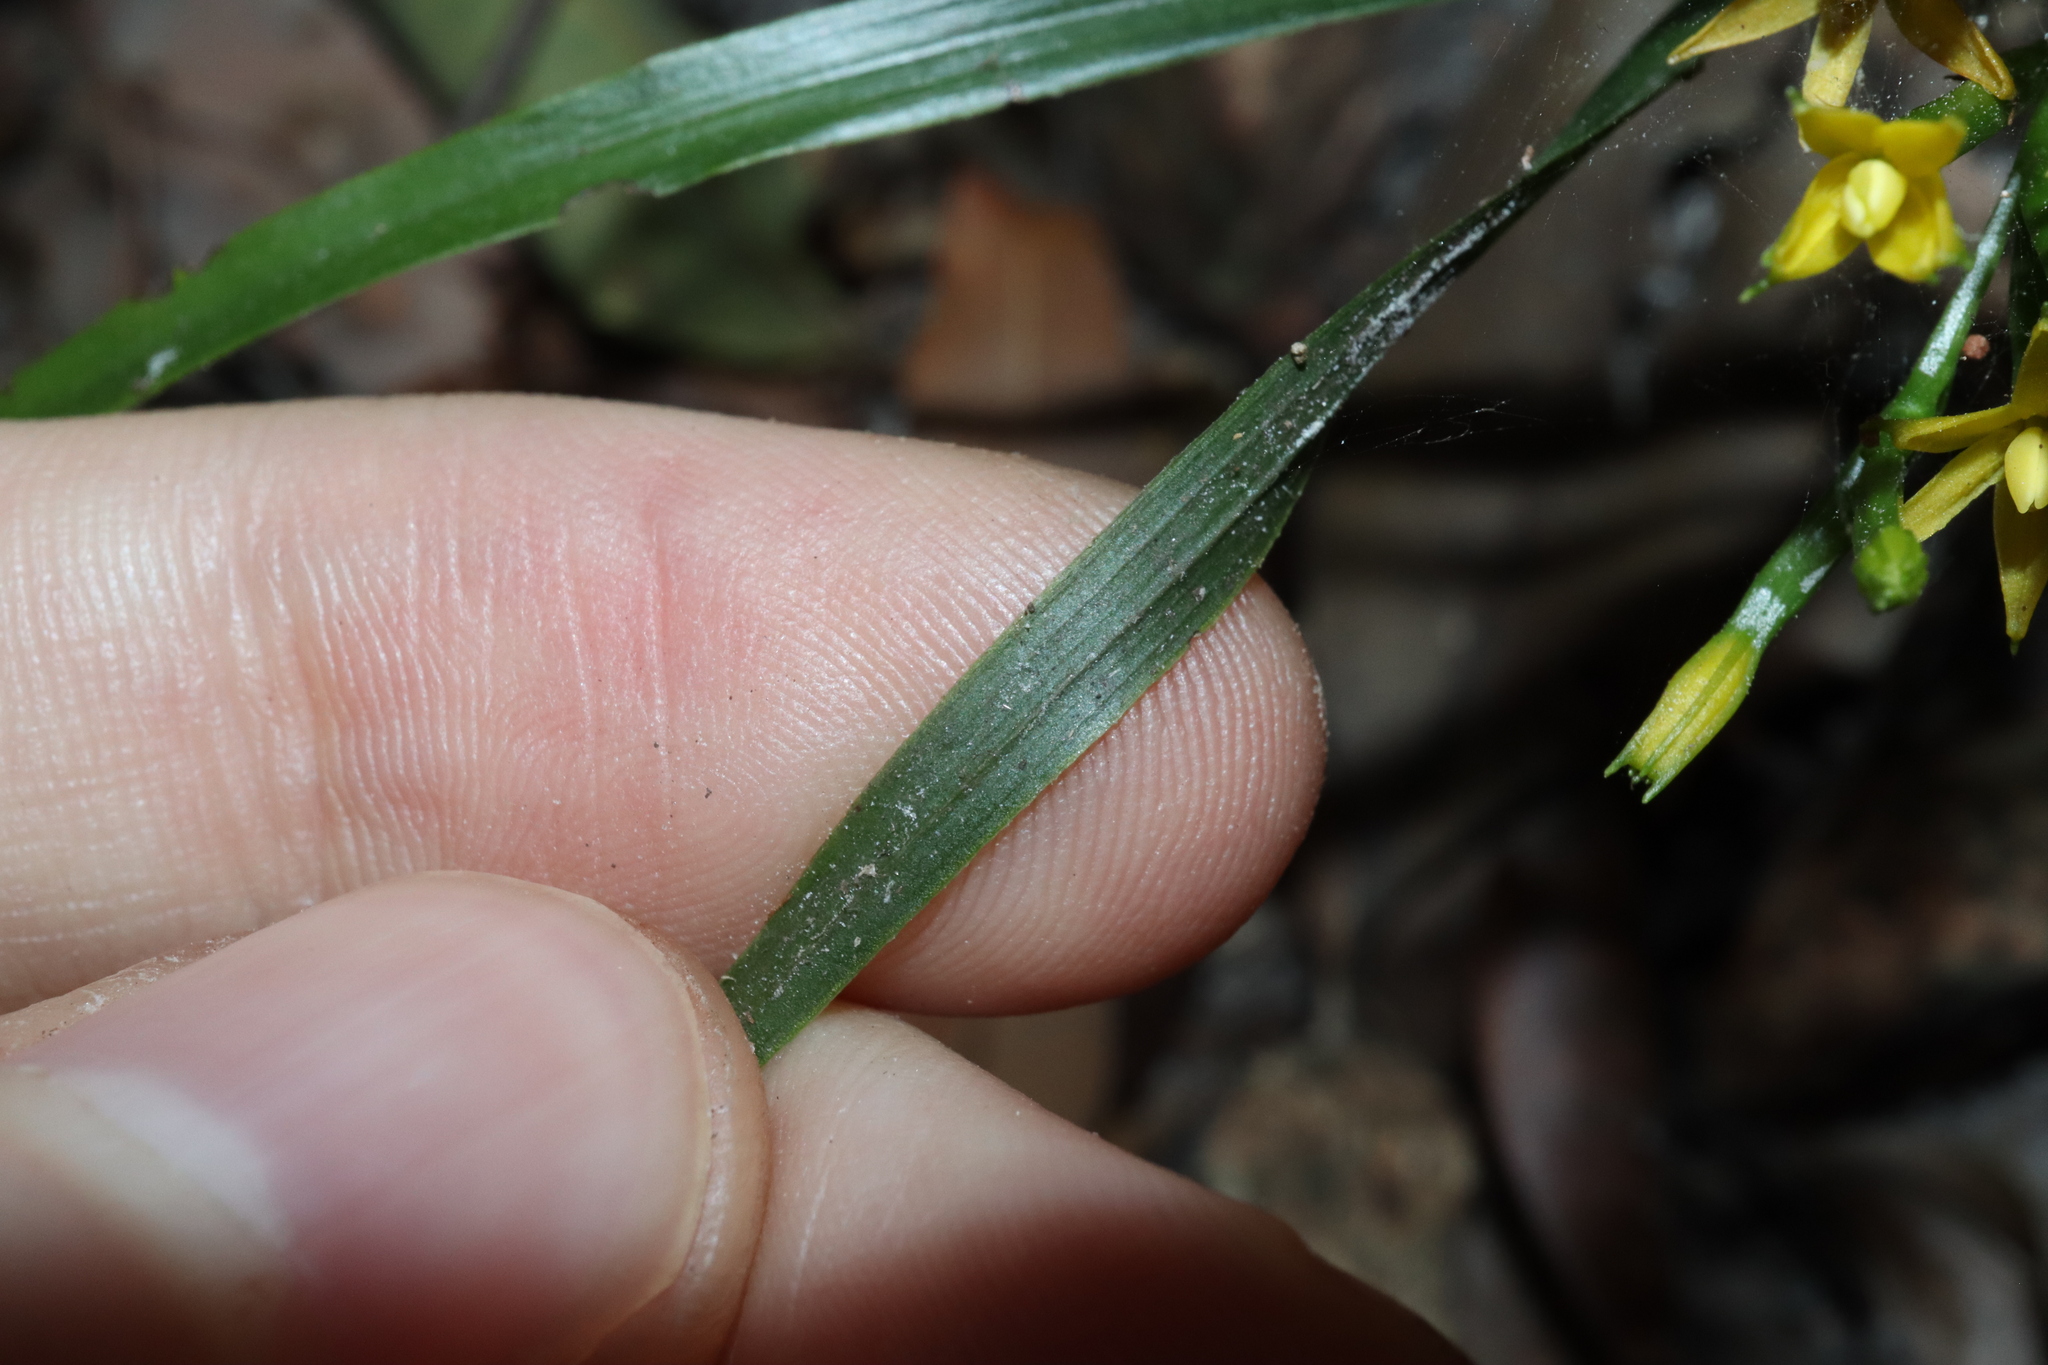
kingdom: Plantae
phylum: Tracheophyta
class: Liliopsida
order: Asparagales
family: Orchidaceae
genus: Apostasia
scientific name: Apostasia wallichii
